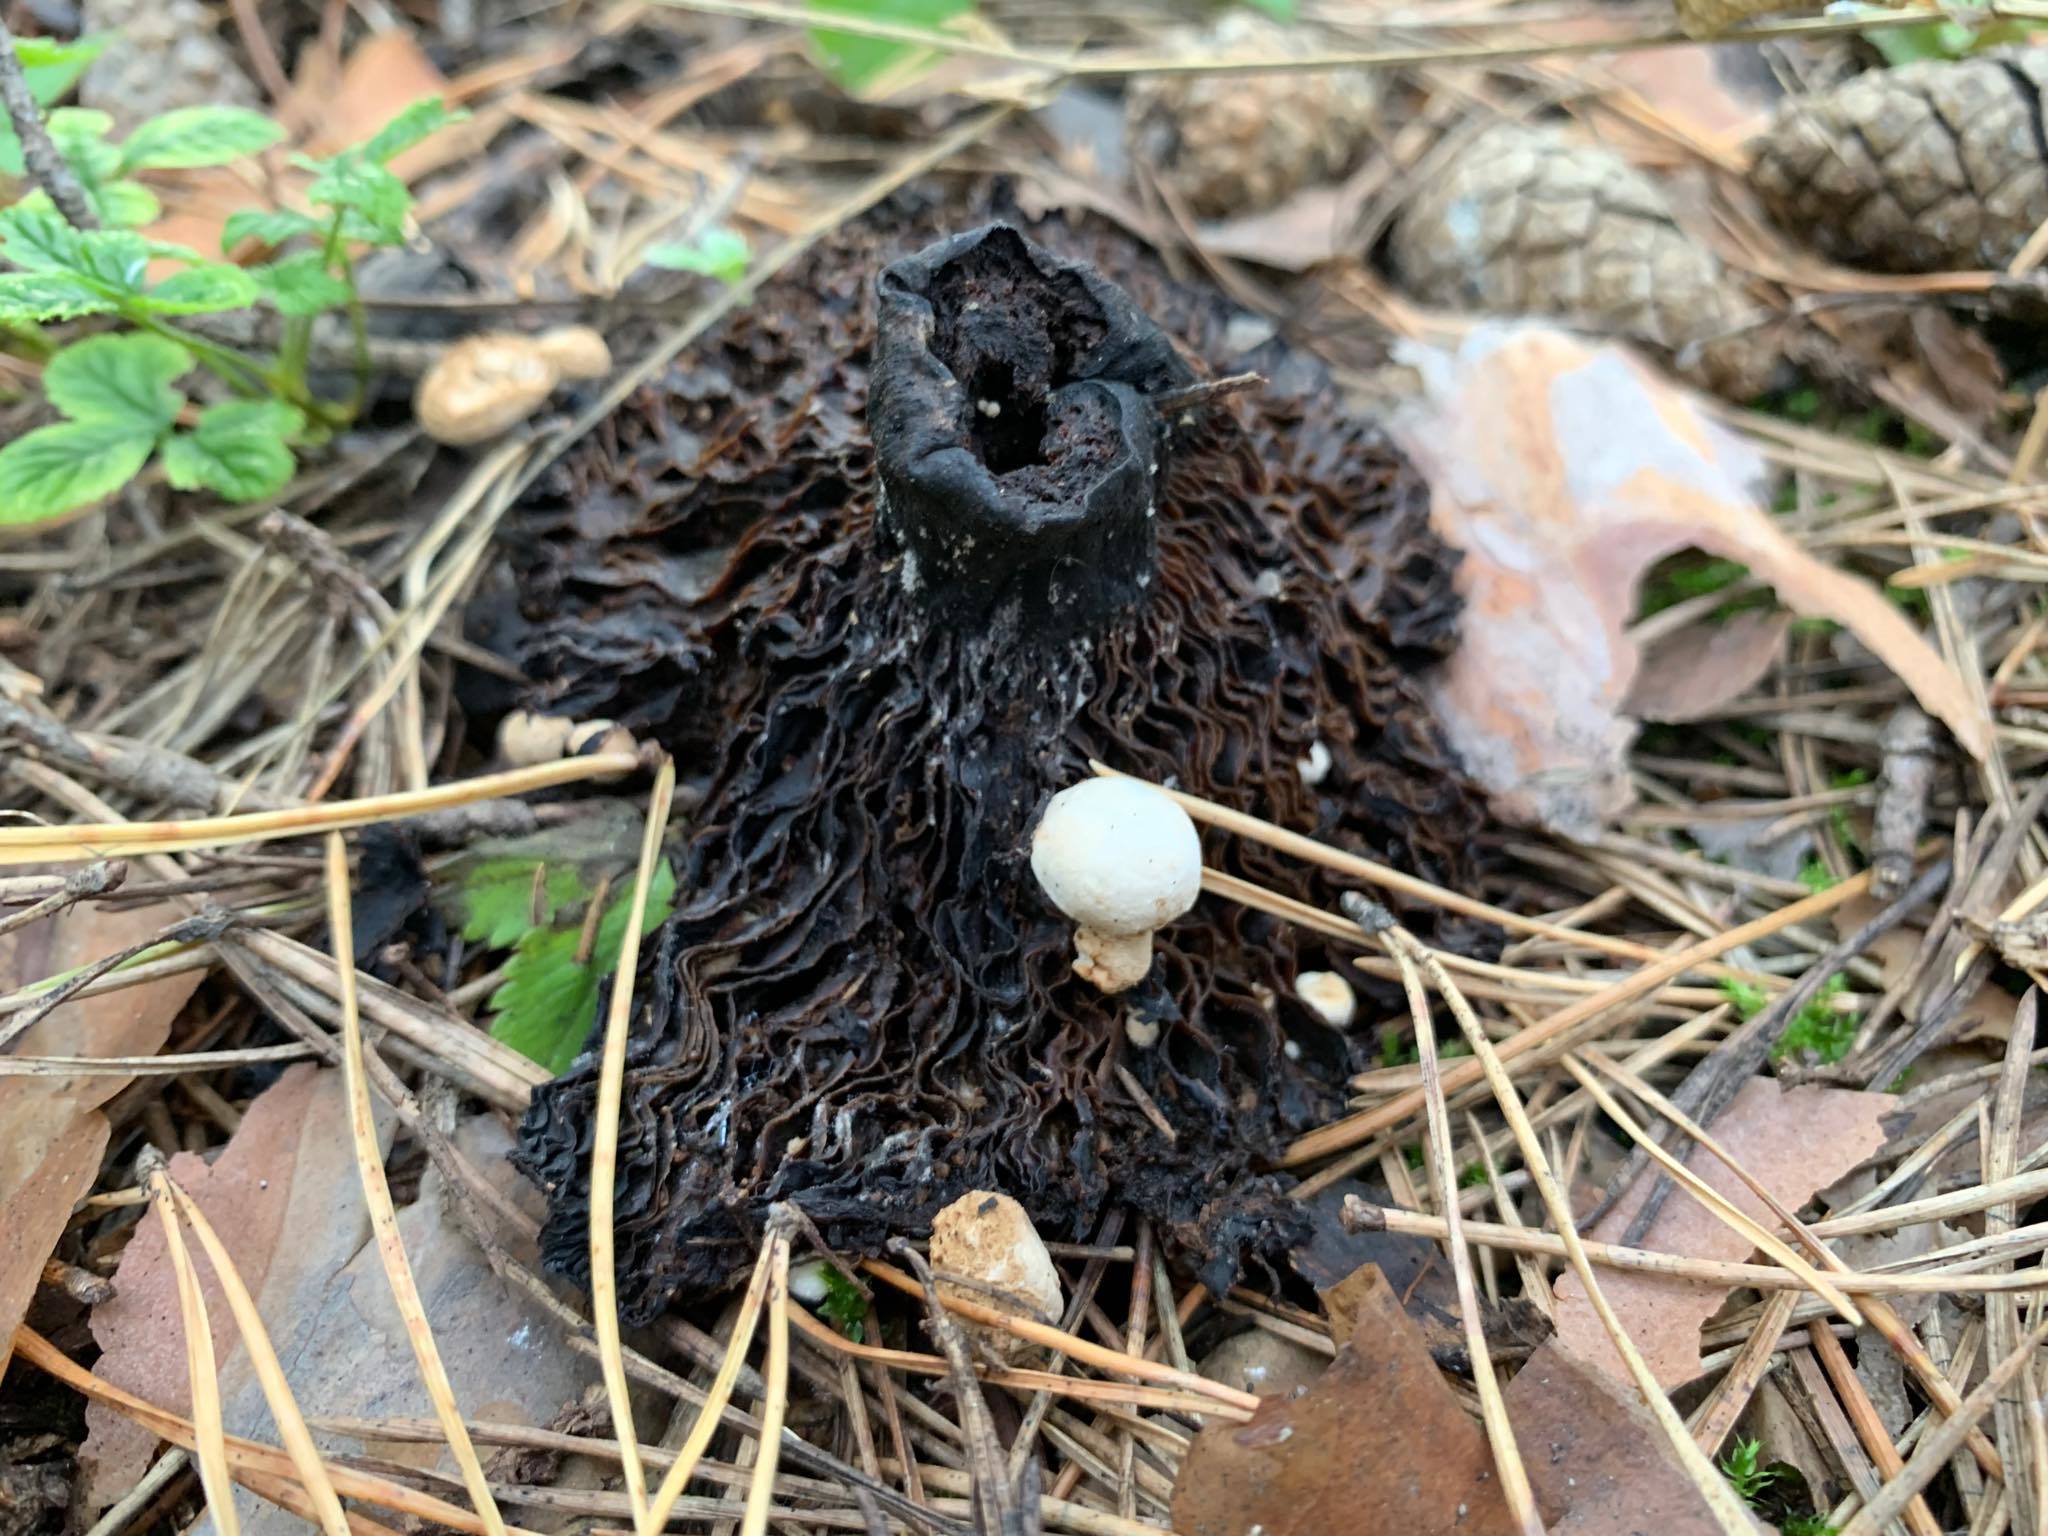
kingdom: Fungi
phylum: Basidiomycota
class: Agaricomycetes
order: Agaricales
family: Lyophyllaceae
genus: Asterophora
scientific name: Asterophora lycoperdoides
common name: Pick-a-back toadstool
